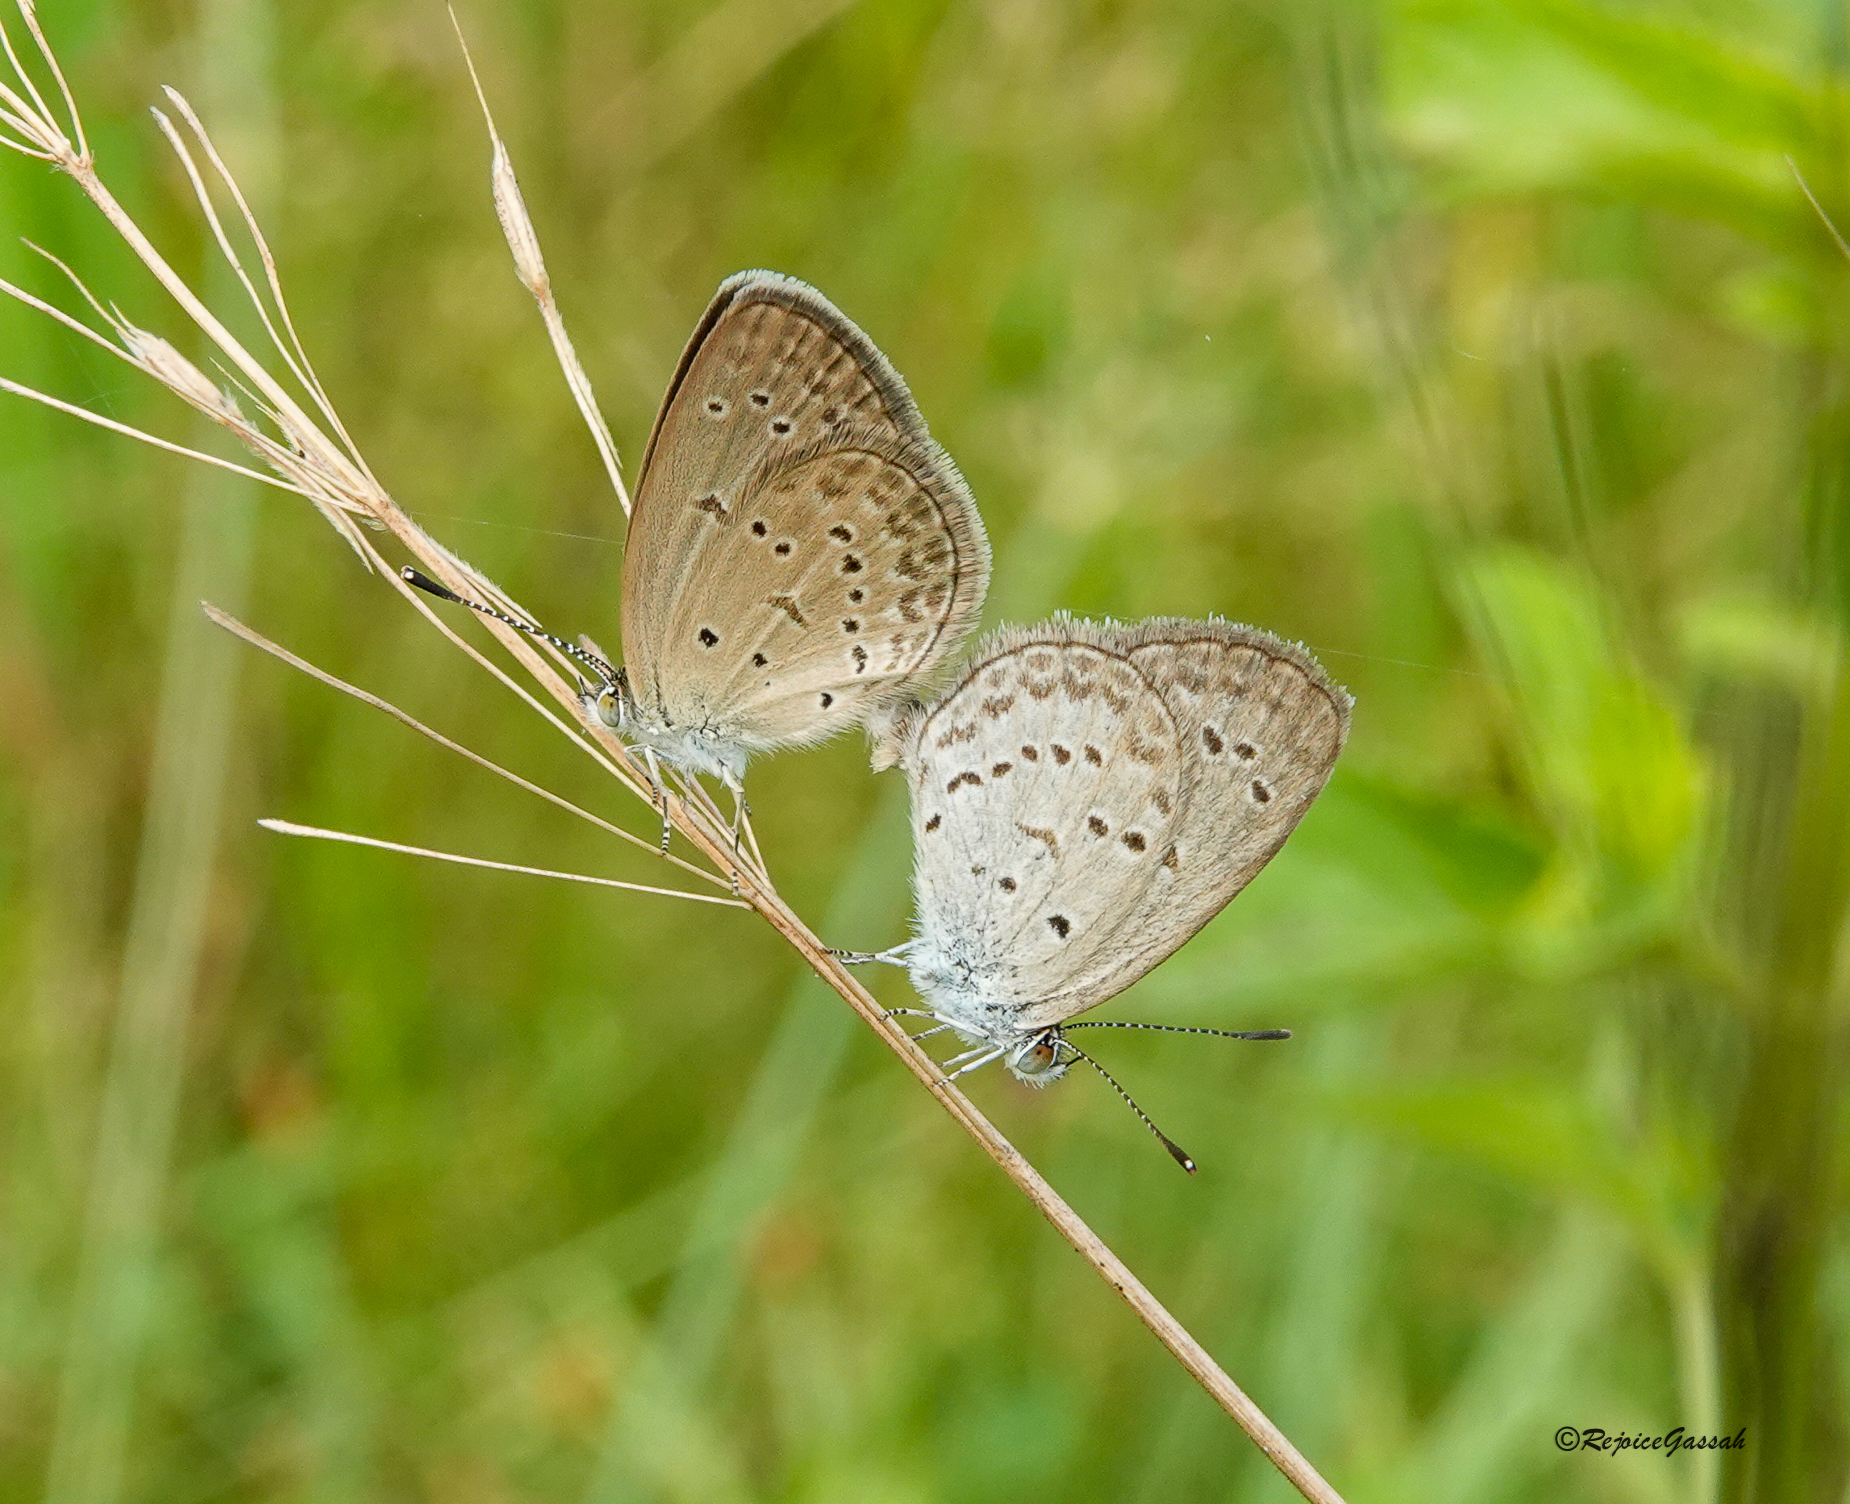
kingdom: Animalia
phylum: Arthropoda
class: Insecta
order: Lepidoptera
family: Lycaenidae
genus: Zizina
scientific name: Zizina otis
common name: Lesser grass blue
